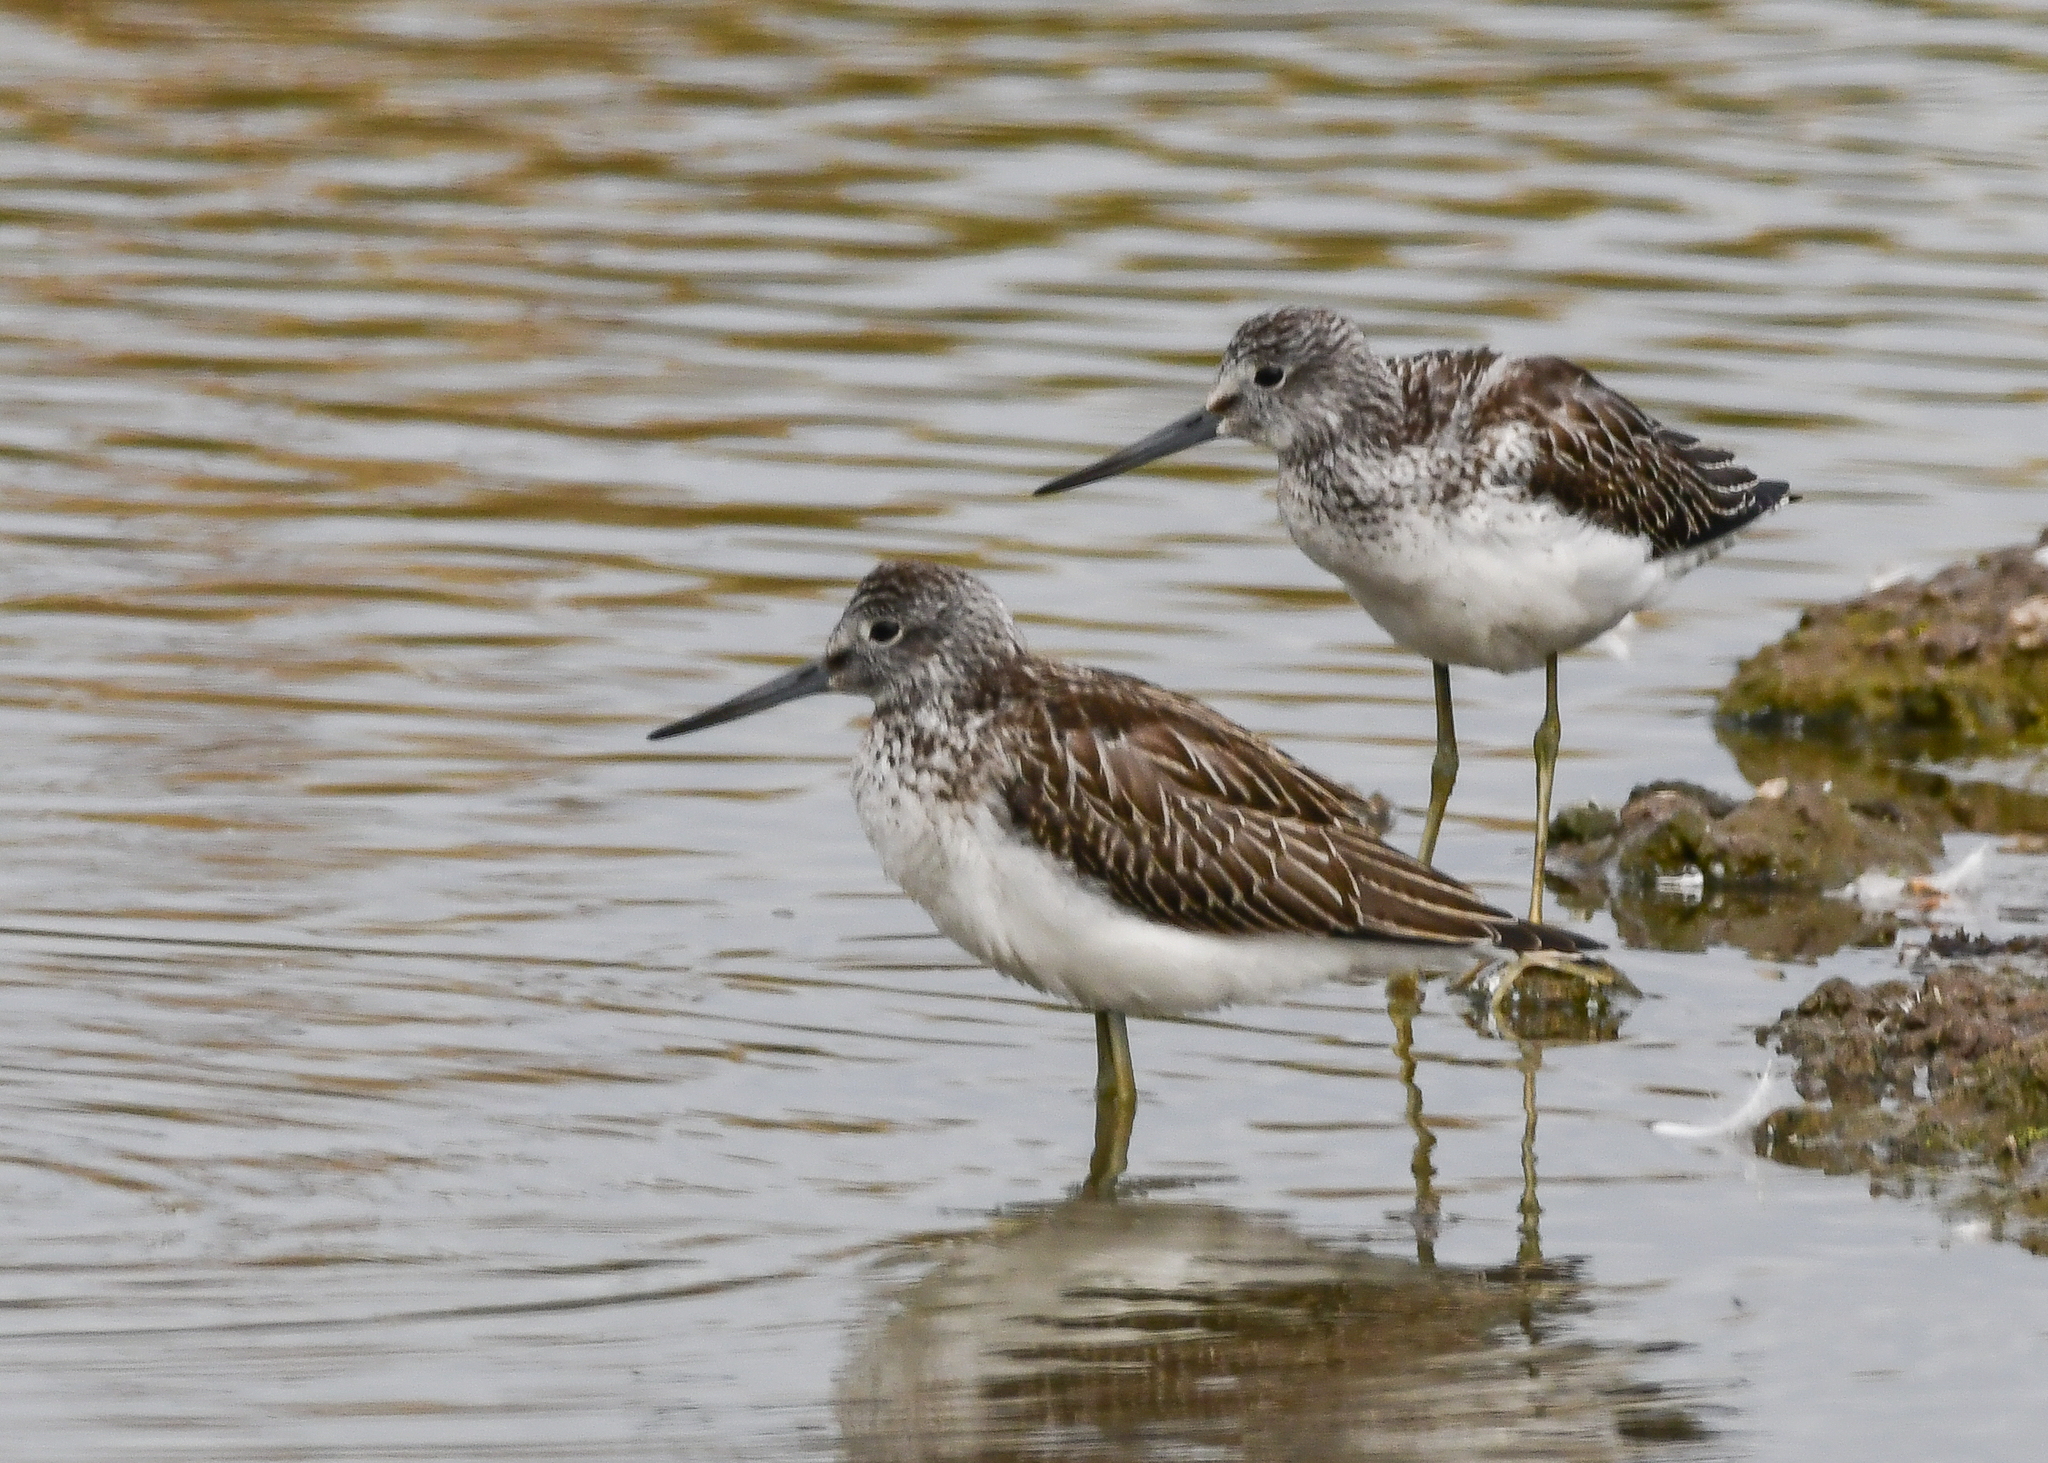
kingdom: Animalia
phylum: Chordata
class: Aves
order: Charadriiformes
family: Scolopacidae
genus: Tringa
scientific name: Tringa nebularia
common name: Common greenshank
